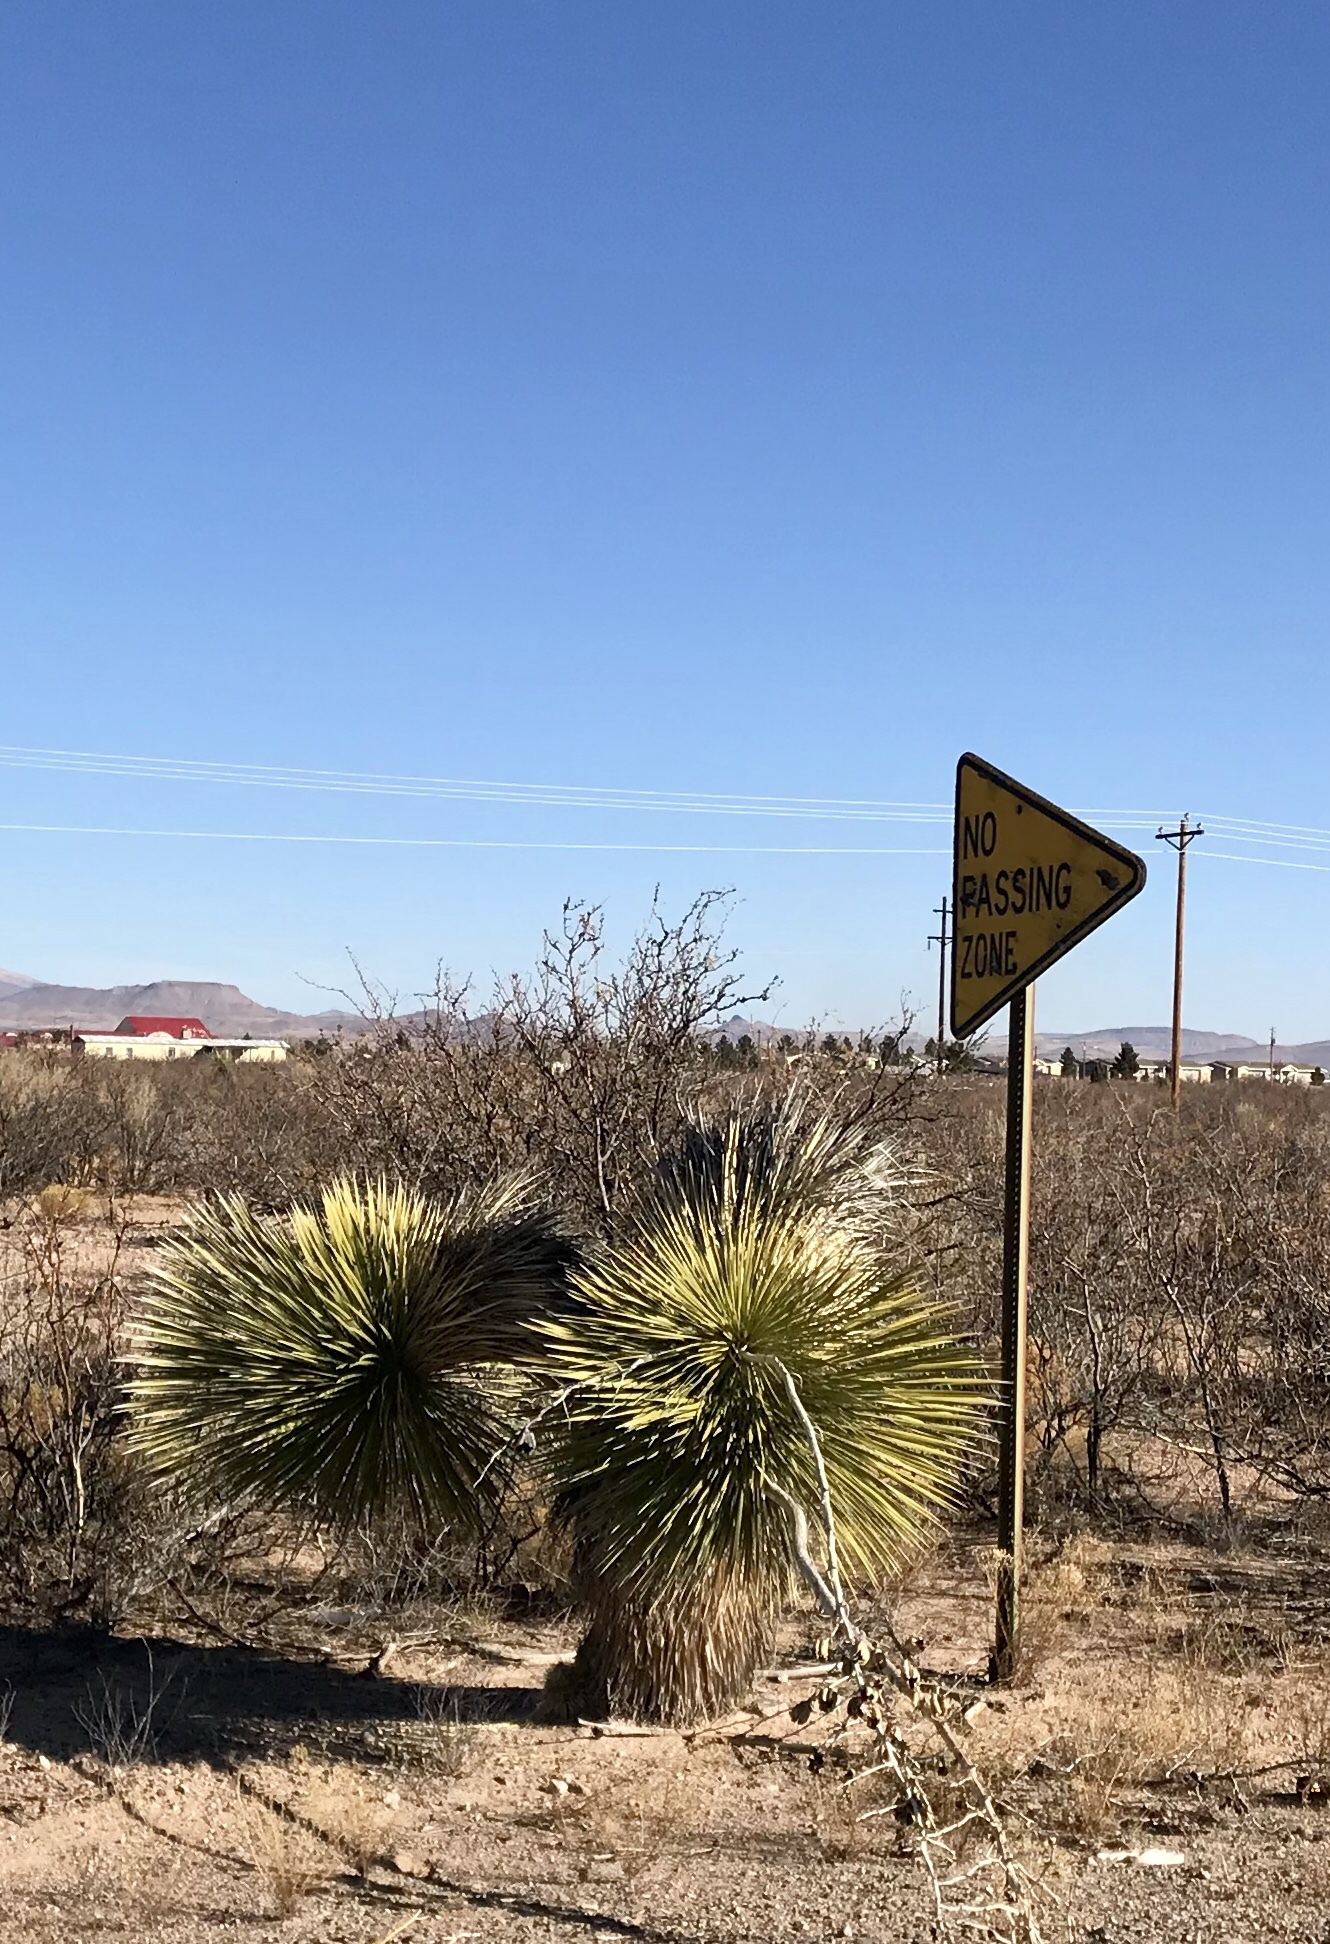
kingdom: Plantae
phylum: Tracheophyta
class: Liliopsida
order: Asparagales
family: Asparagaceae
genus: Yucca
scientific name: Yucca elata
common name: Palmella
